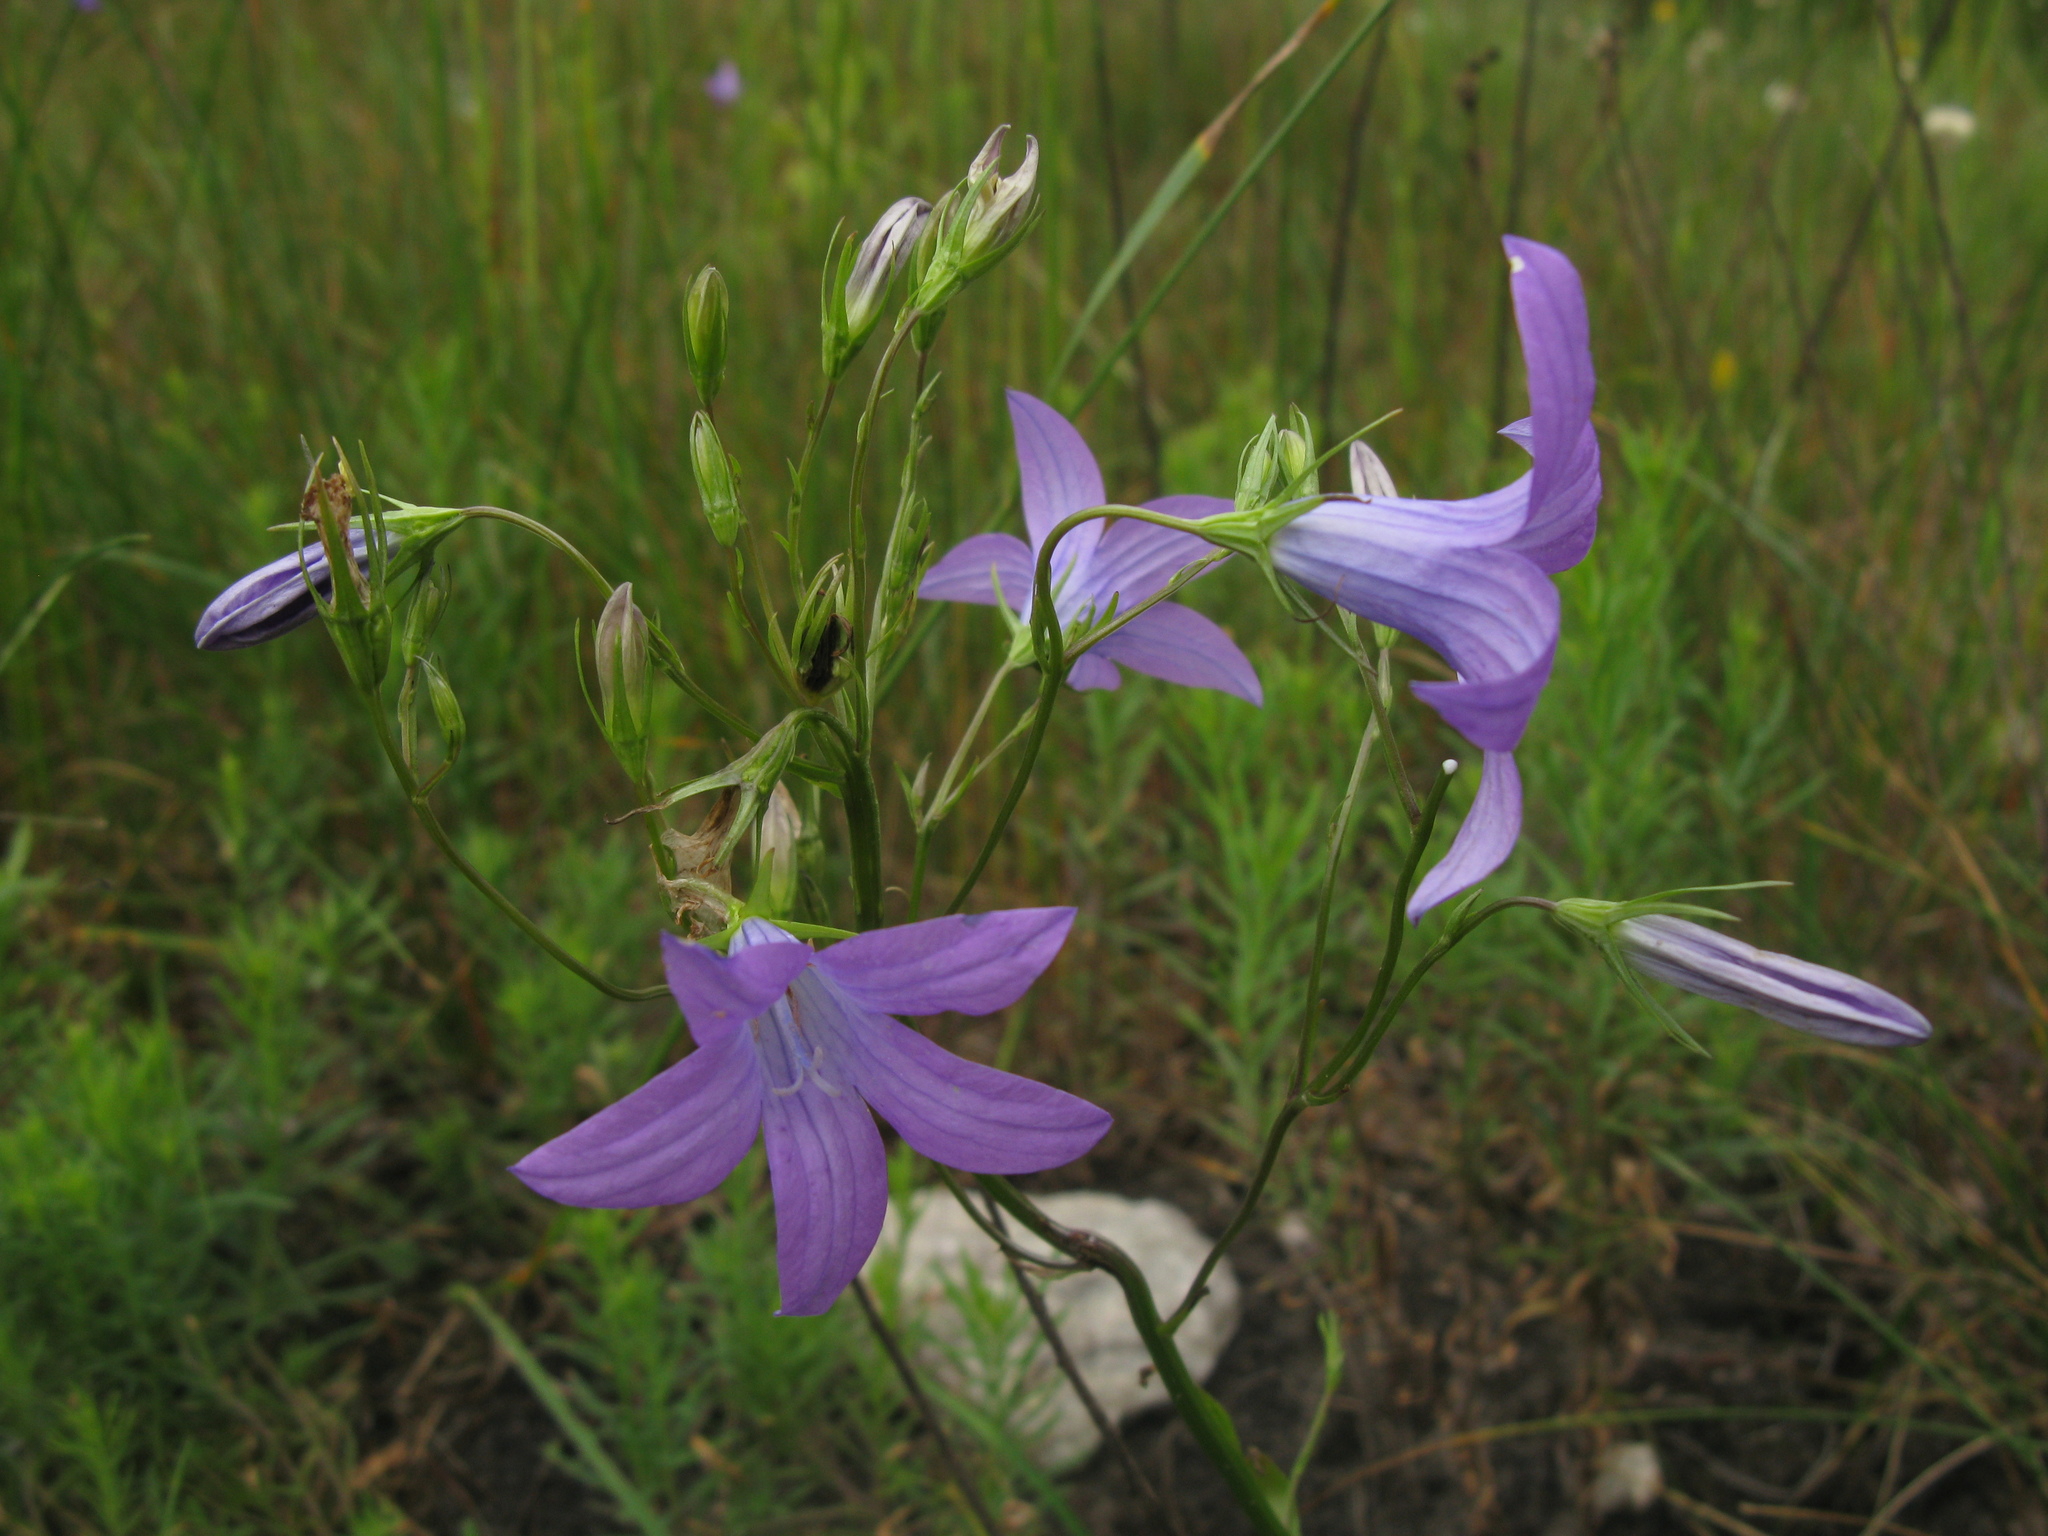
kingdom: Plantae
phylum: Tracheophyta
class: Magnoliopsida
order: Asterales
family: Campanulaceae
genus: Campanula
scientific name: Campanula patula
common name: Spreading bellflower
